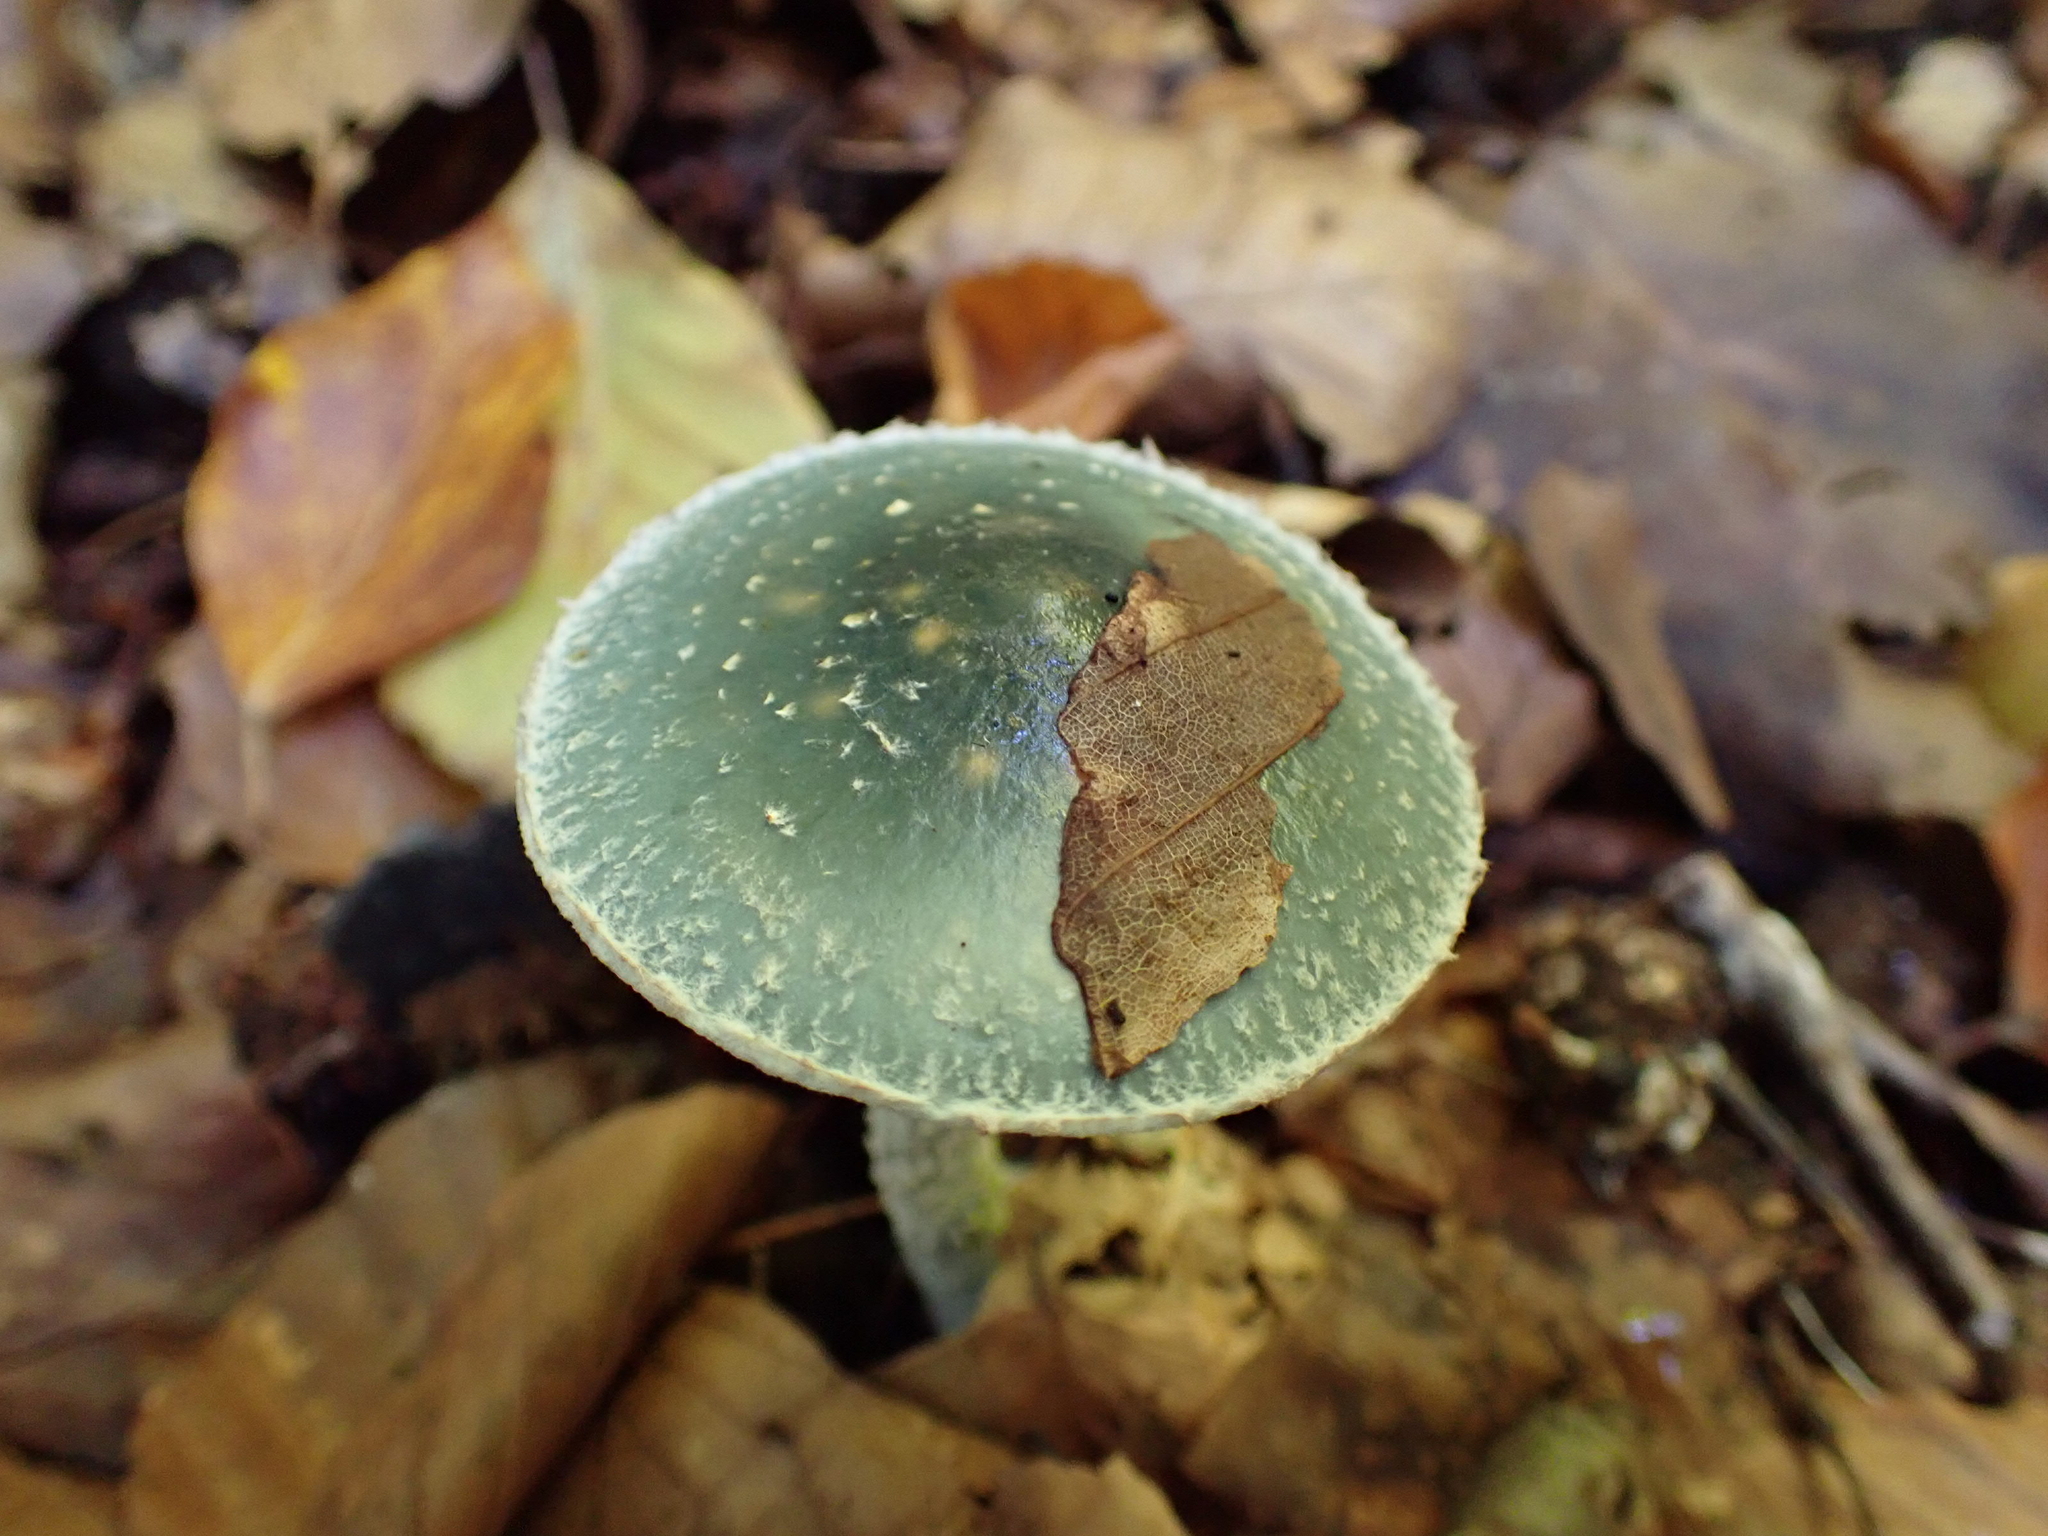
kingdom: Fungi
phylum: Basidiomycota
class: Agaricomycetes
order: Agaricales
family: Strophariaceae
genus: Stropharia
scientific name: Stropharia caerulea
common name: Blue roundhead
